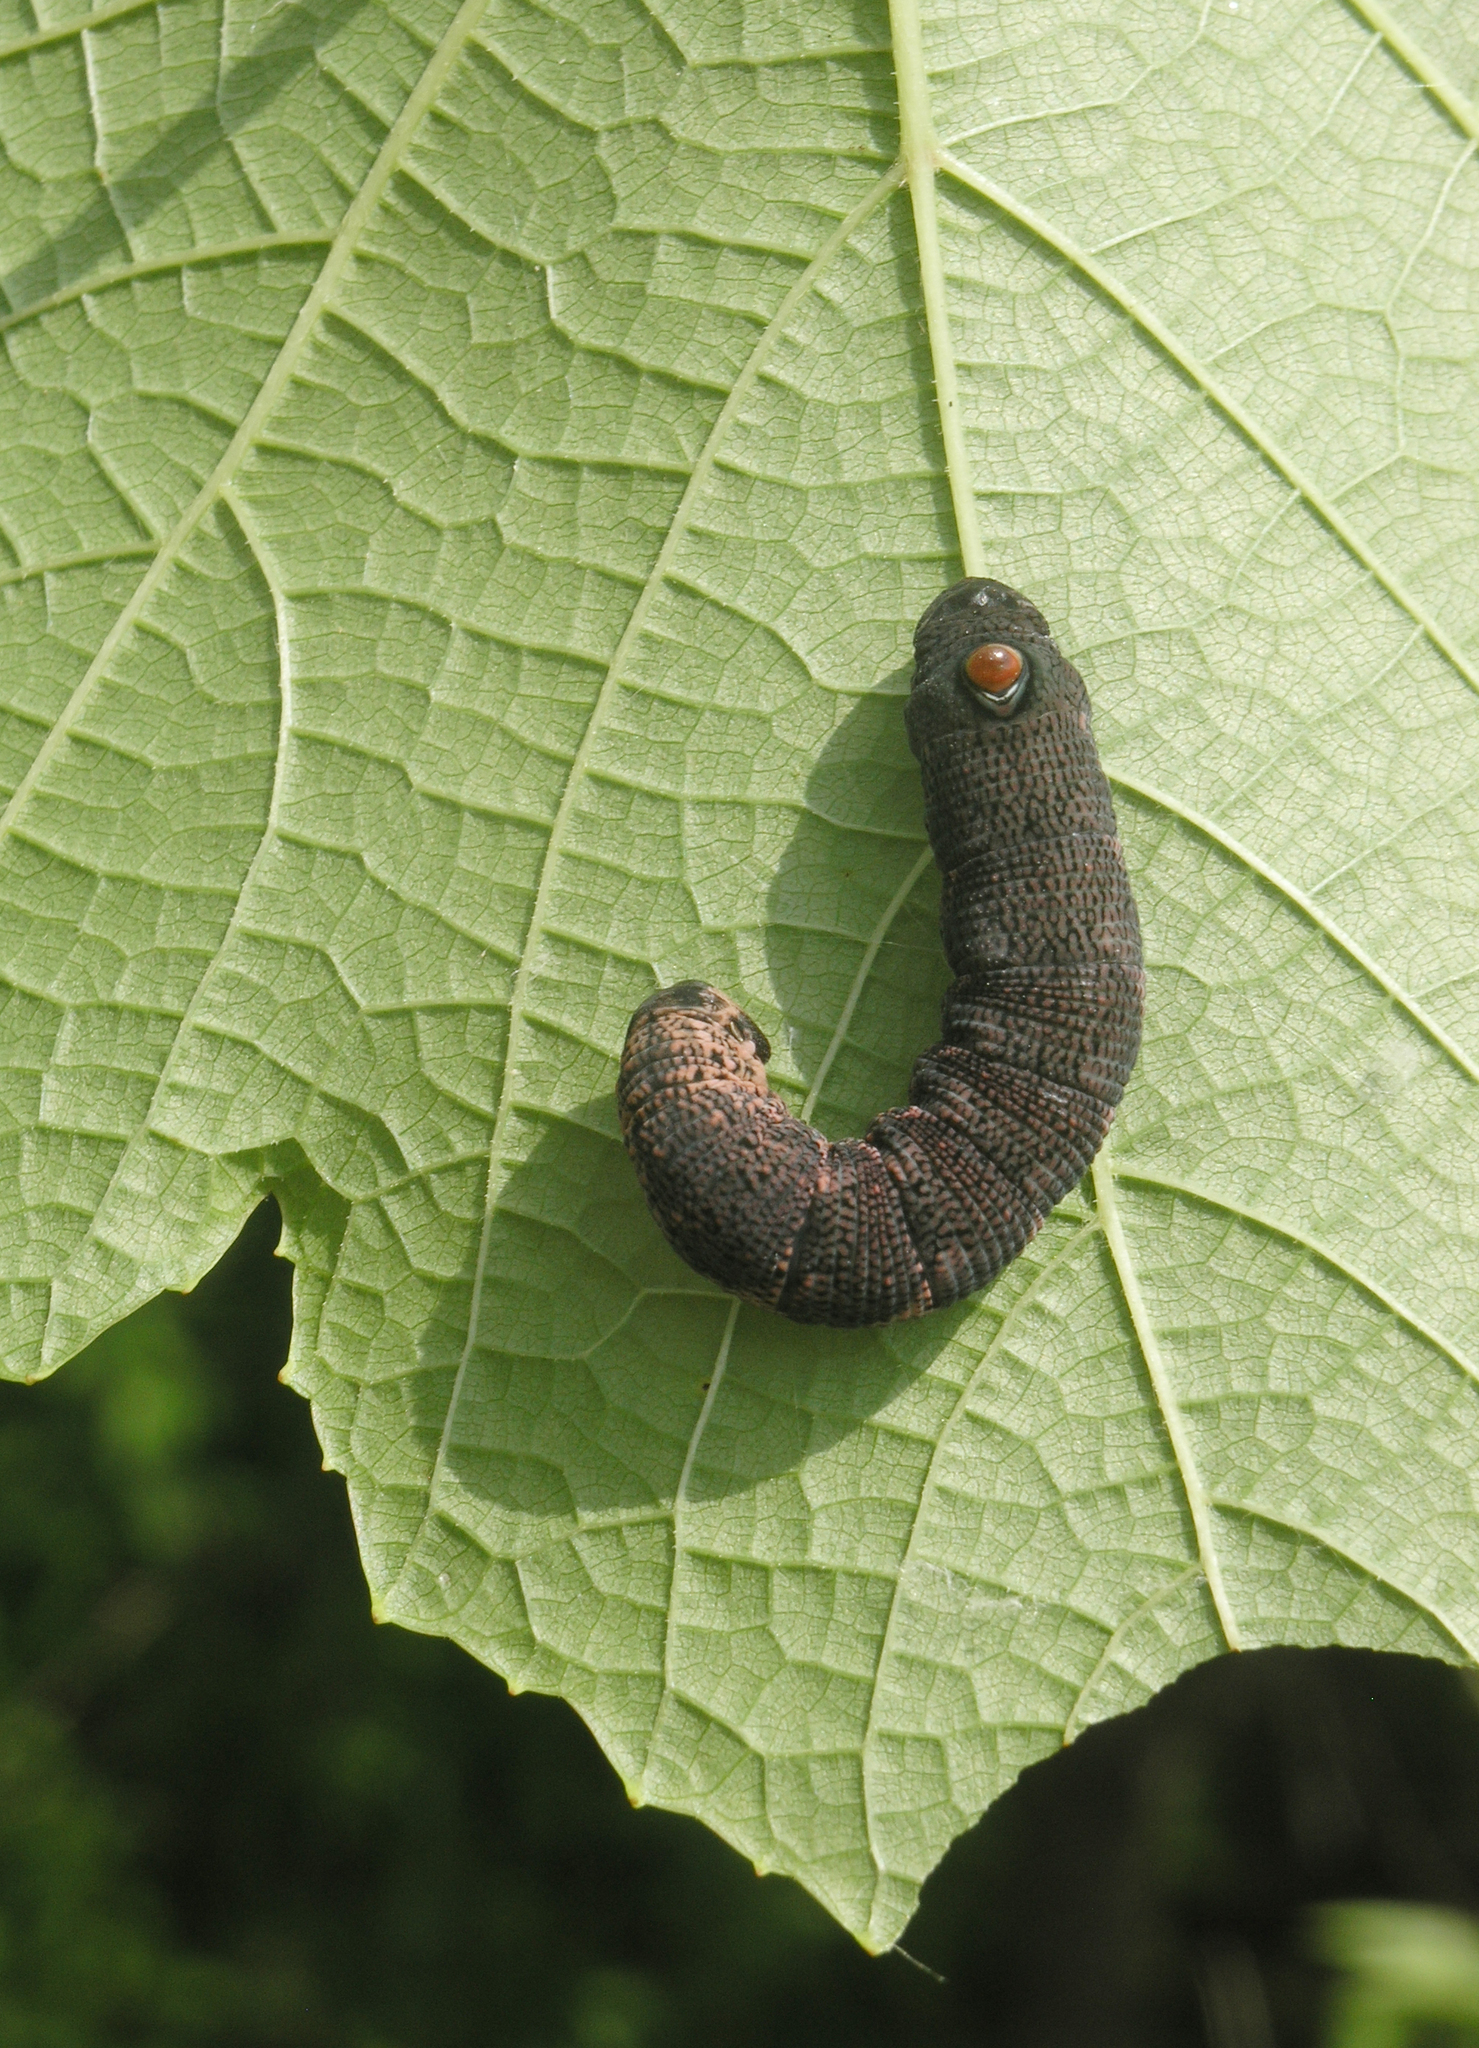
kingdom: Animalia
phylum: Arthropoda
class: Insecta
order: Lepidoptera
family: Sphingidae
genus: Sphecodina
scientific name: Sphecodina caudata
